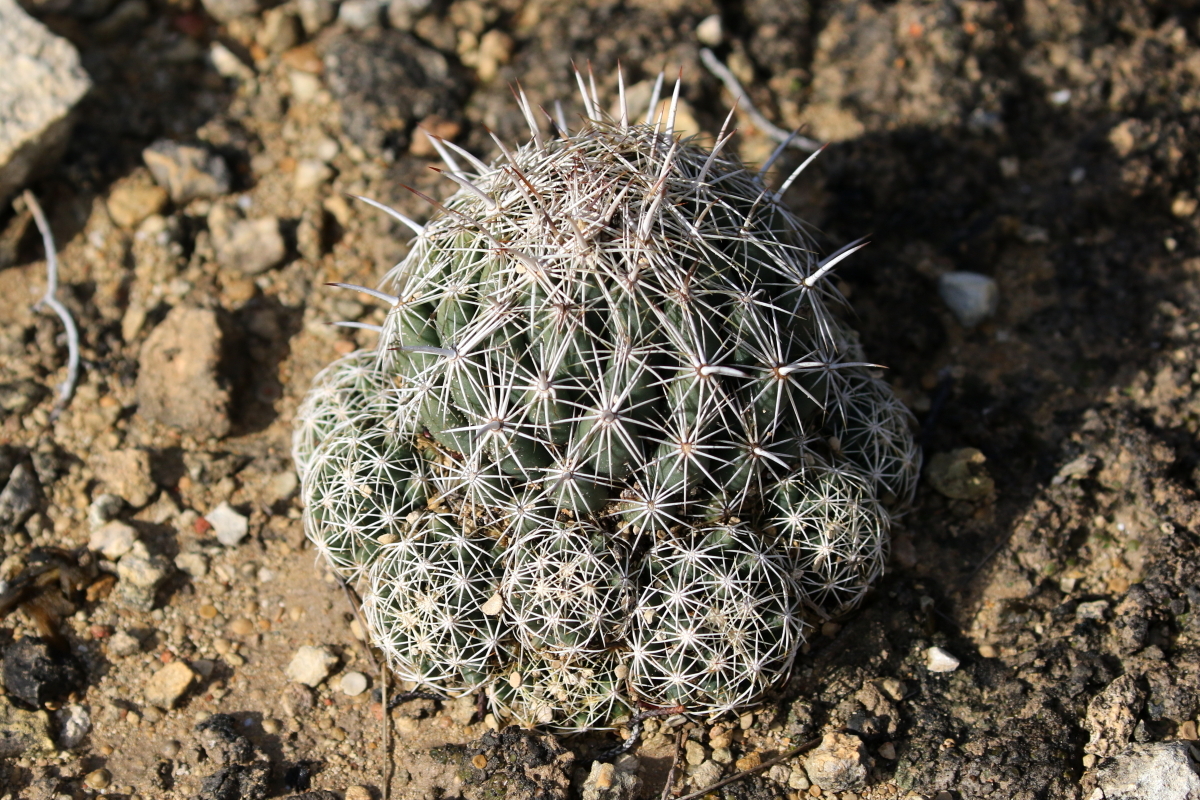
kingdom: Plantae
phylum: Tracheophyta
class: Magnoliopsida
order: Caryophyllales
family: Cactaceae
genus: Coryphantha
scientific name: Coryphantha sulcata
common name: Finger cactus
